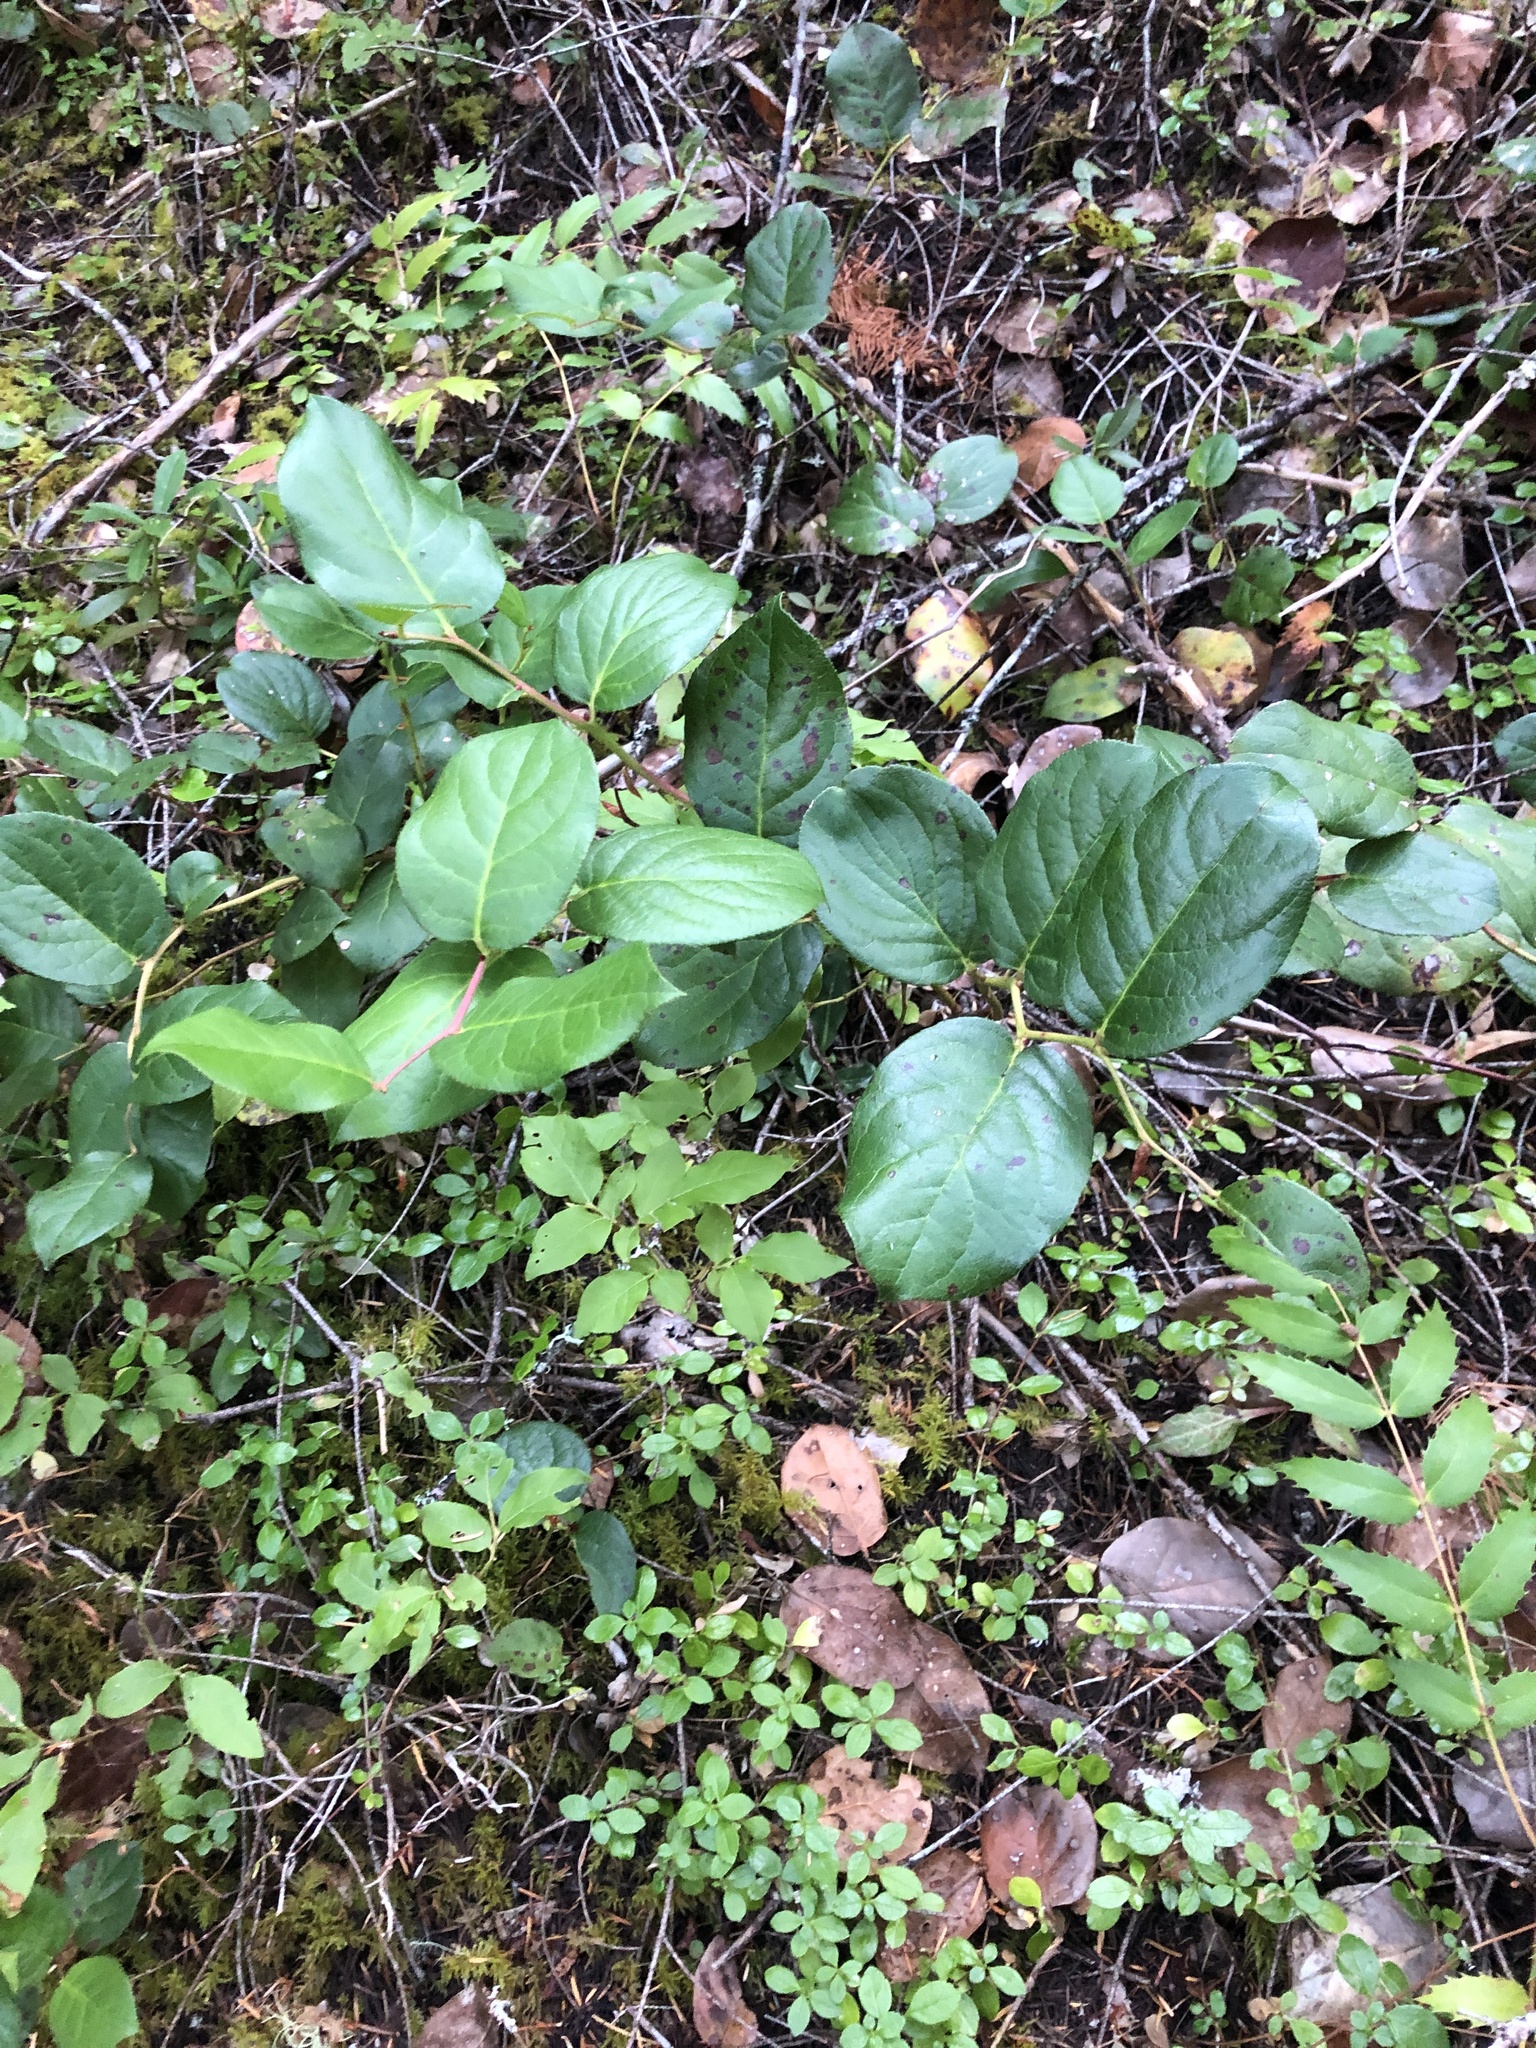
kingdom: Plantae
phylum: Tracheophyta
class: Magnoliopsida
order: Ericales
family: Ericaceae
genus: Gaultheria
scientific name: Gaultheria shallon
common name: Shallon
